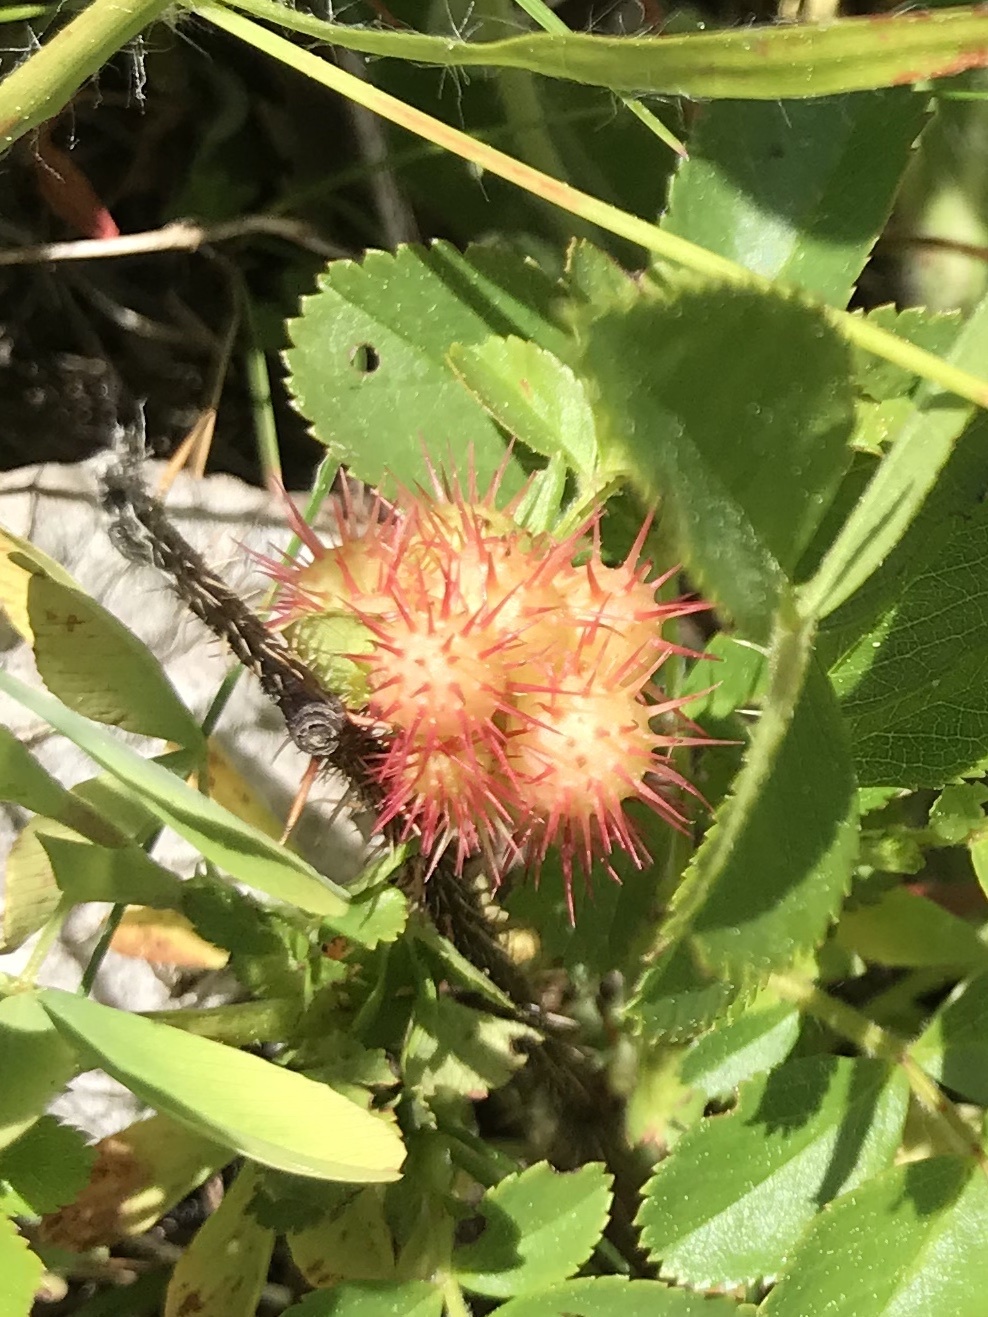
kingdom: Animalia
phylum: Arthropoda
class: Insecta
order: Hymenoptera
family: Cynipidae
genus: Diplolepis
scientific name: Diplolepis polita
